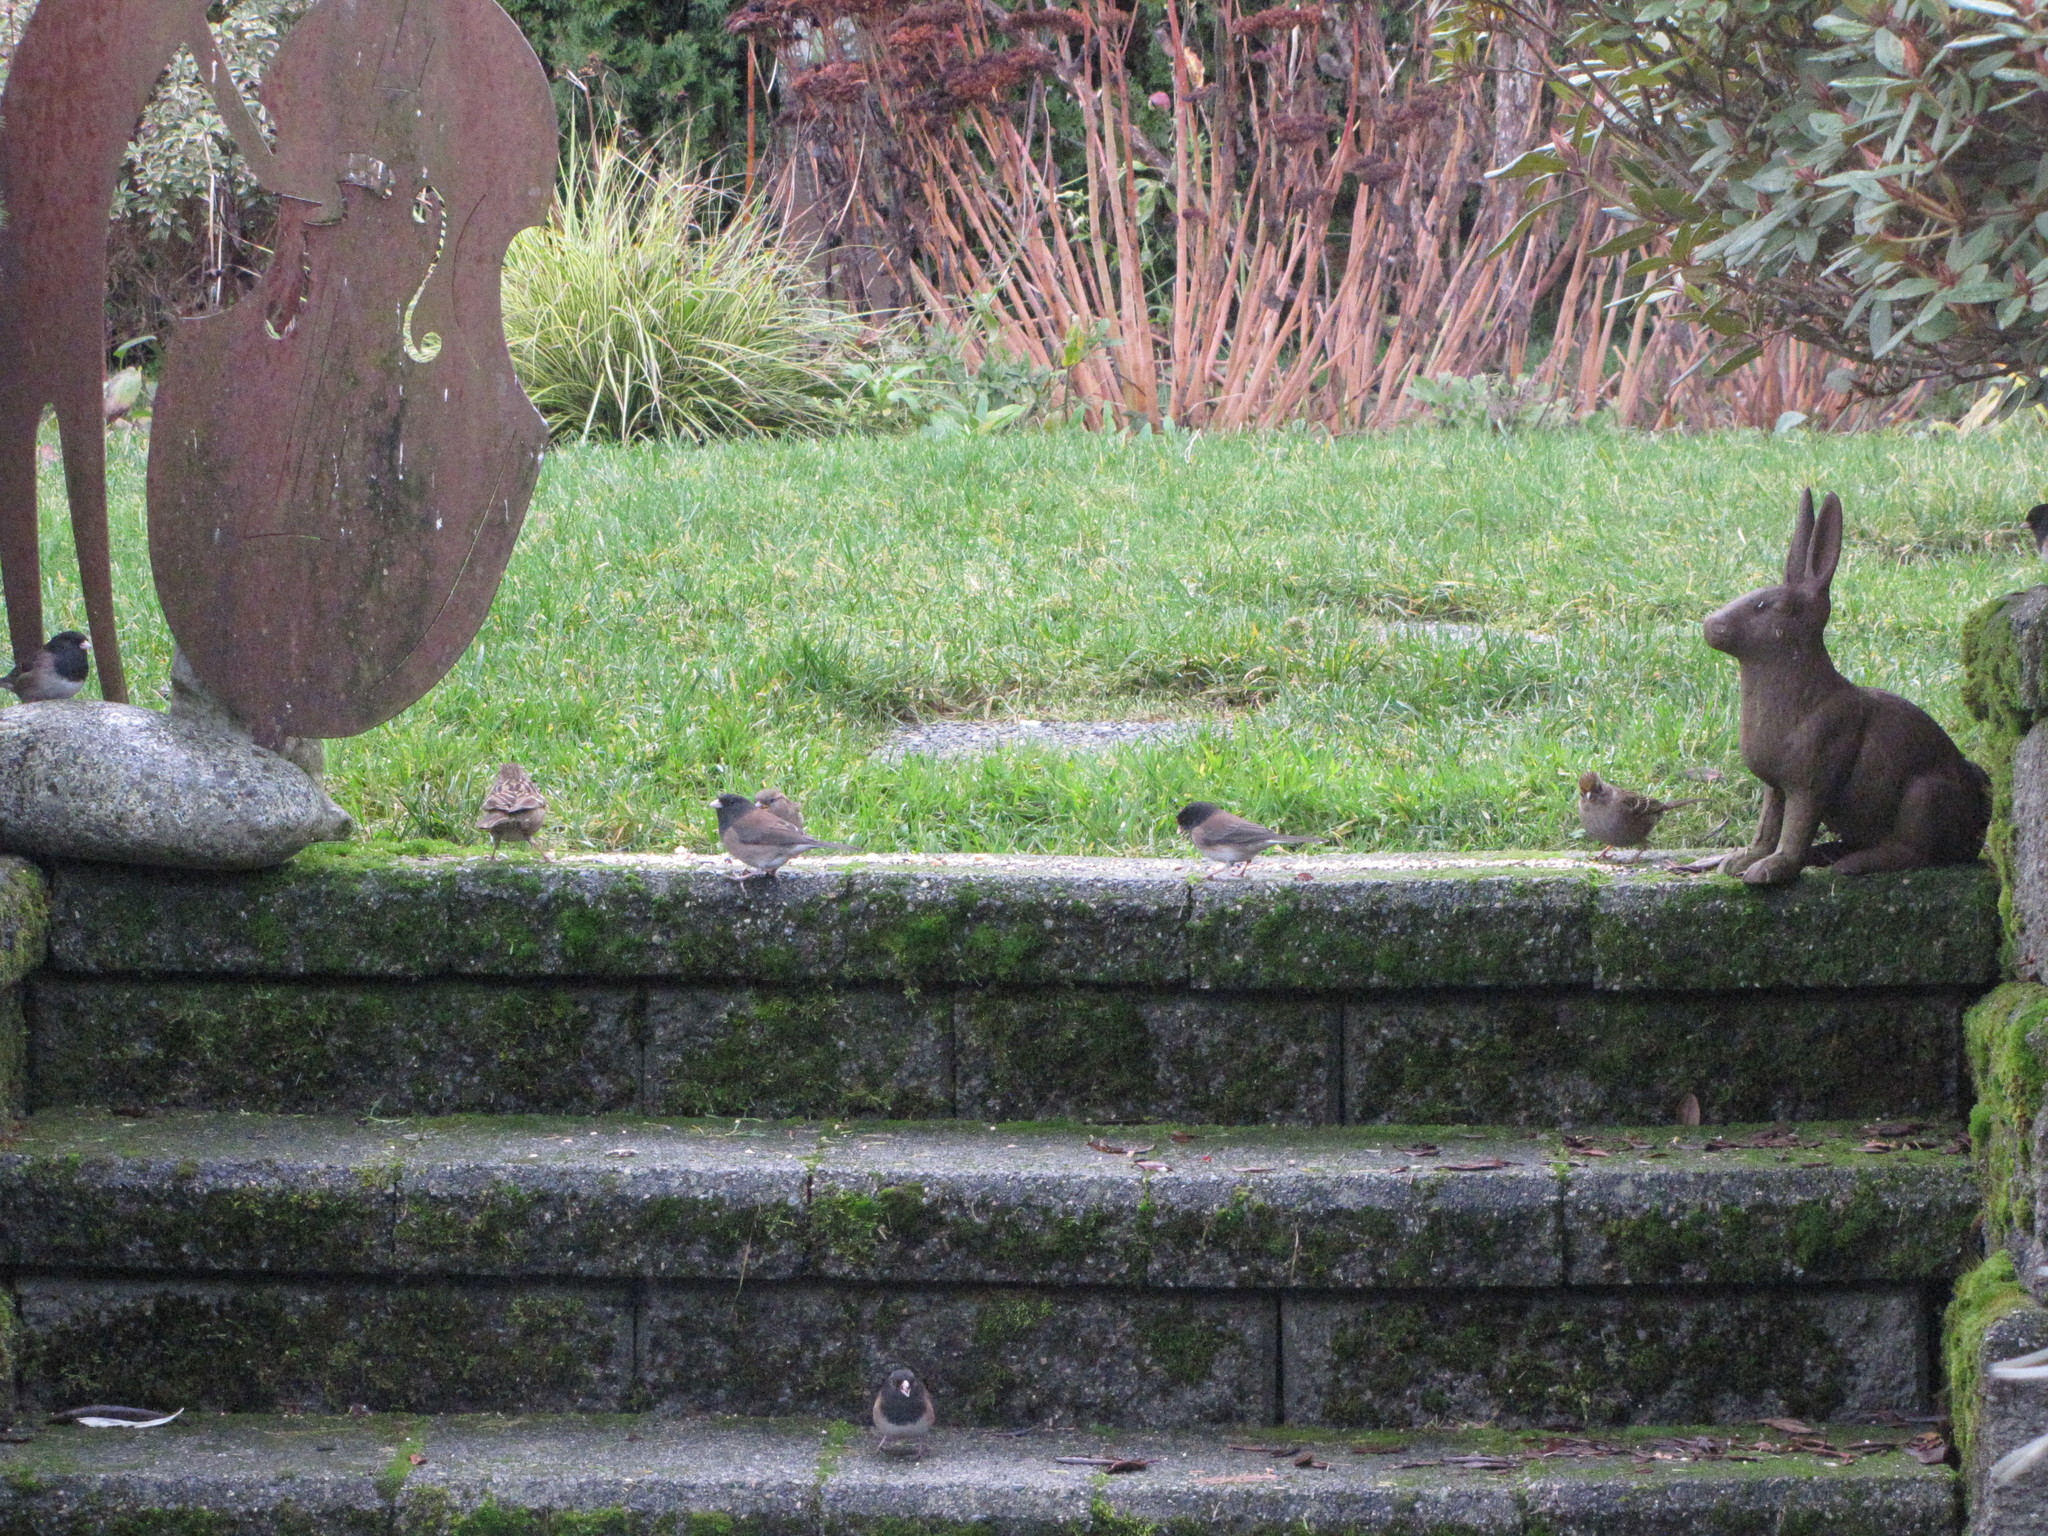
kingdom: Animalia
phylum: Chordata
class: Aves
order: Passeriformes
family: Passerellidae
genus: Junco
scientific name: Junco hyemalis
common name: Dark-eyed junco
